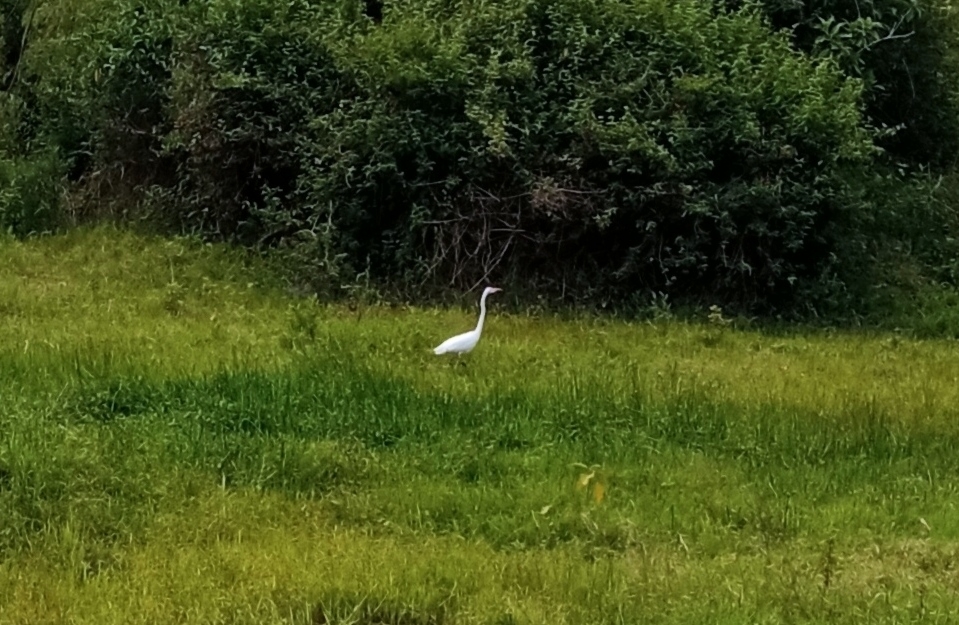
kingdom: Animalia
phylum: Chordata
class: Aves
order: Pelecaniformes
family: Ardeidae
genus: Ardea
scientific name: Ardea alba
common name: Great egret
